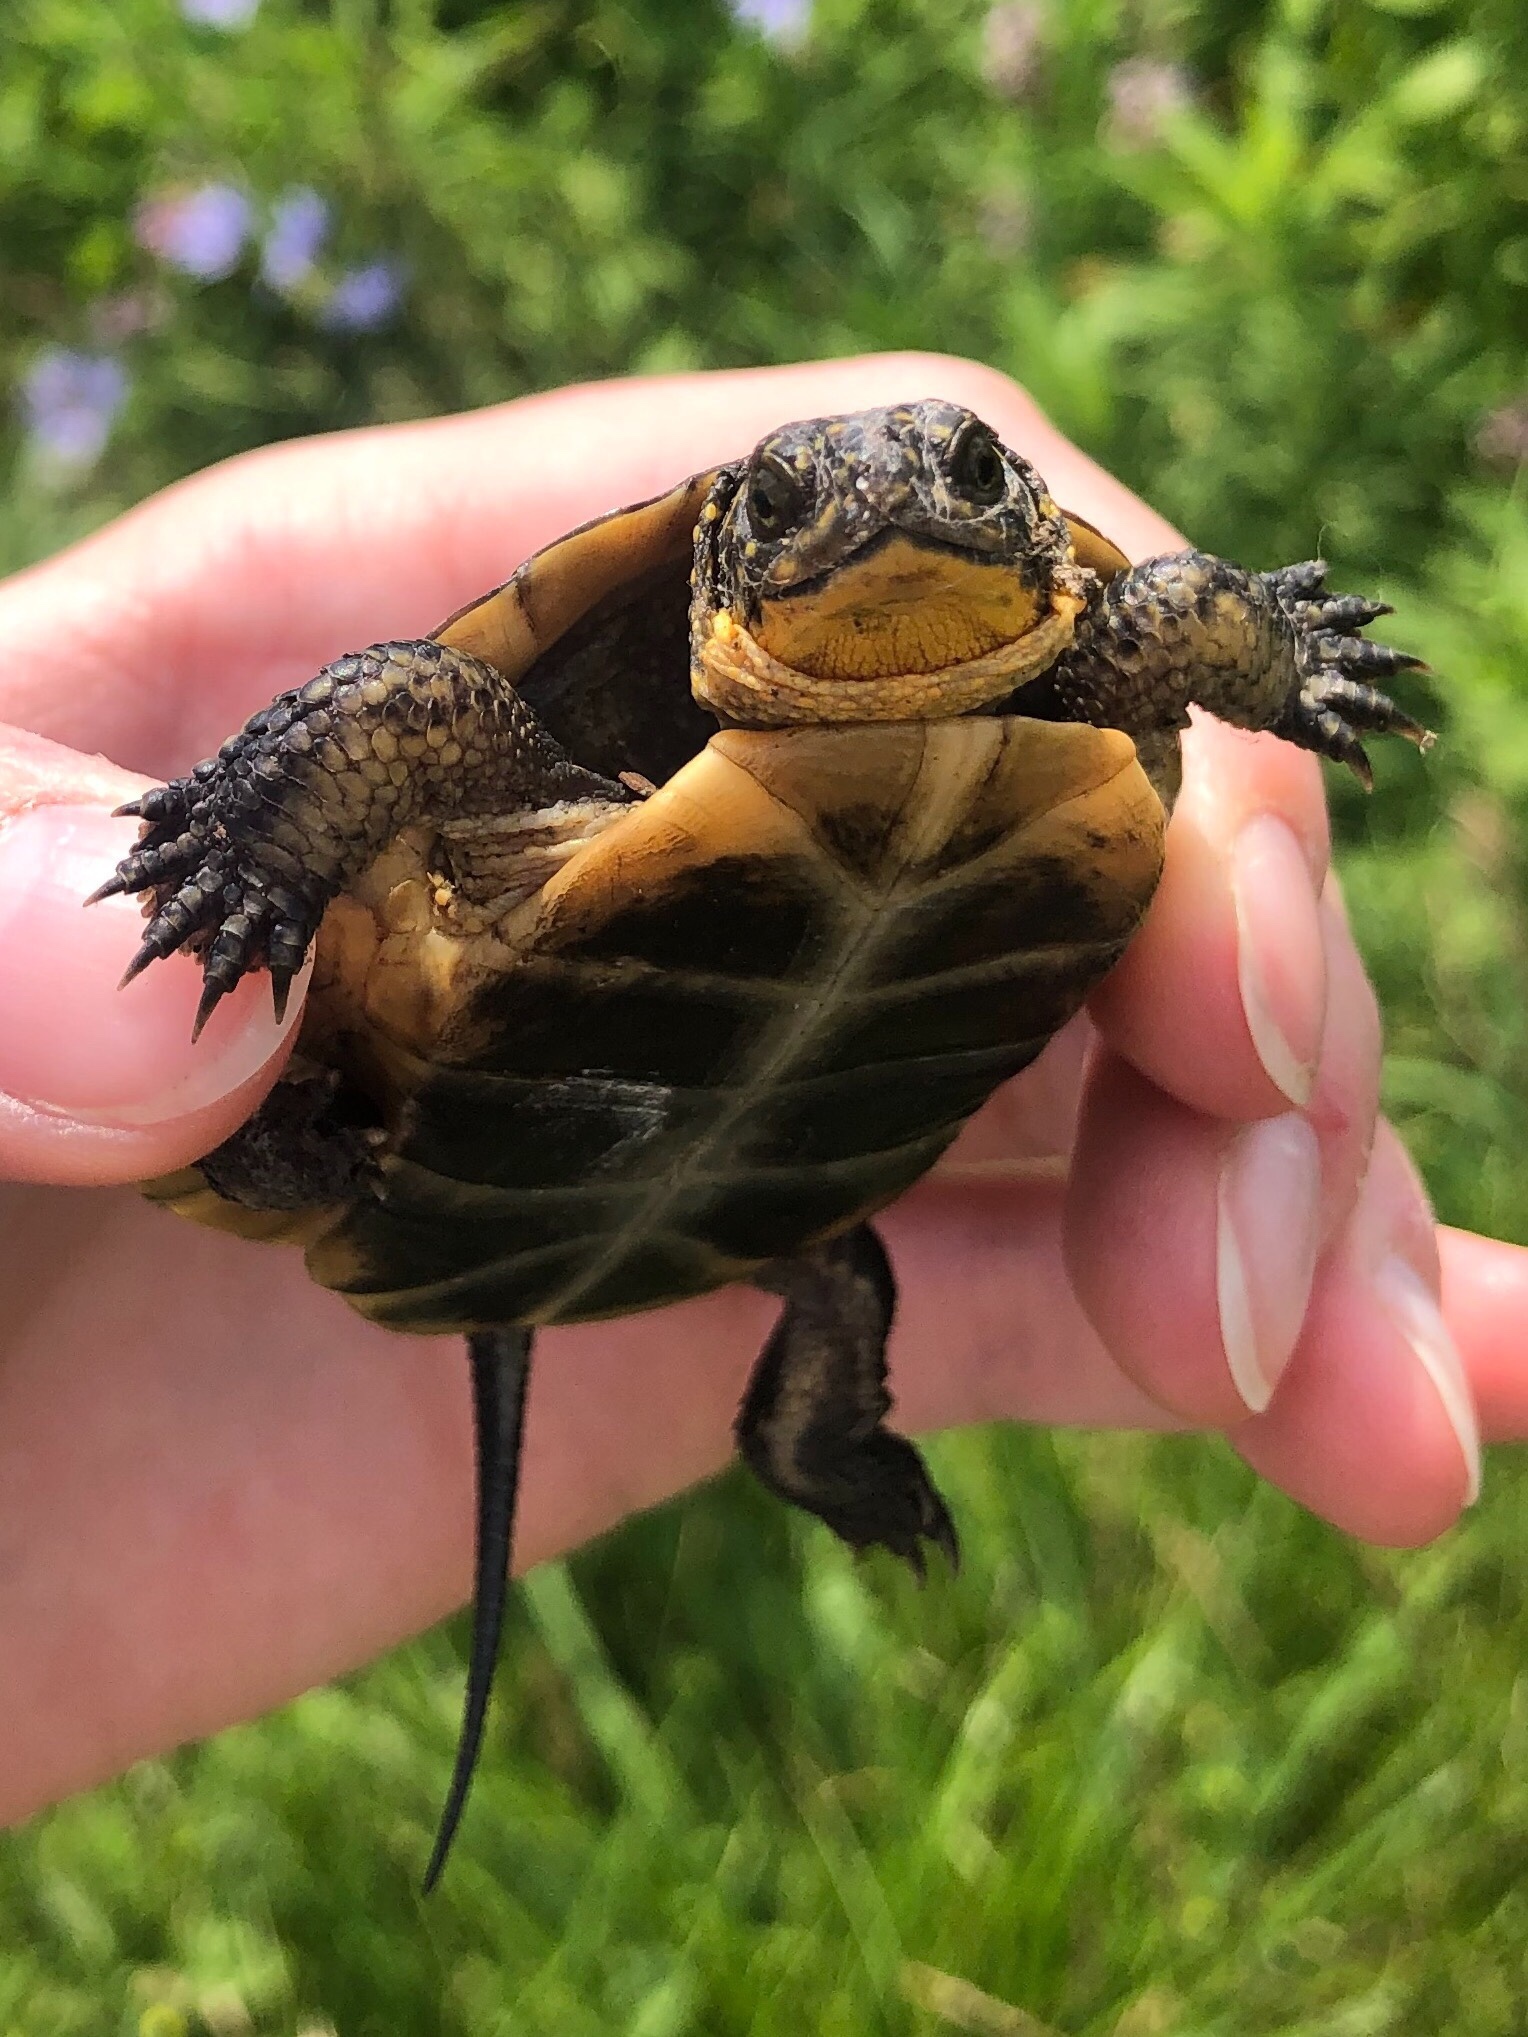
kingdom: Animalia
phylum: Chordata
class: Testudines
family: Emydidae
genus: Emys
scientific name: Emys blandingii
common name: Blanding's turtle
